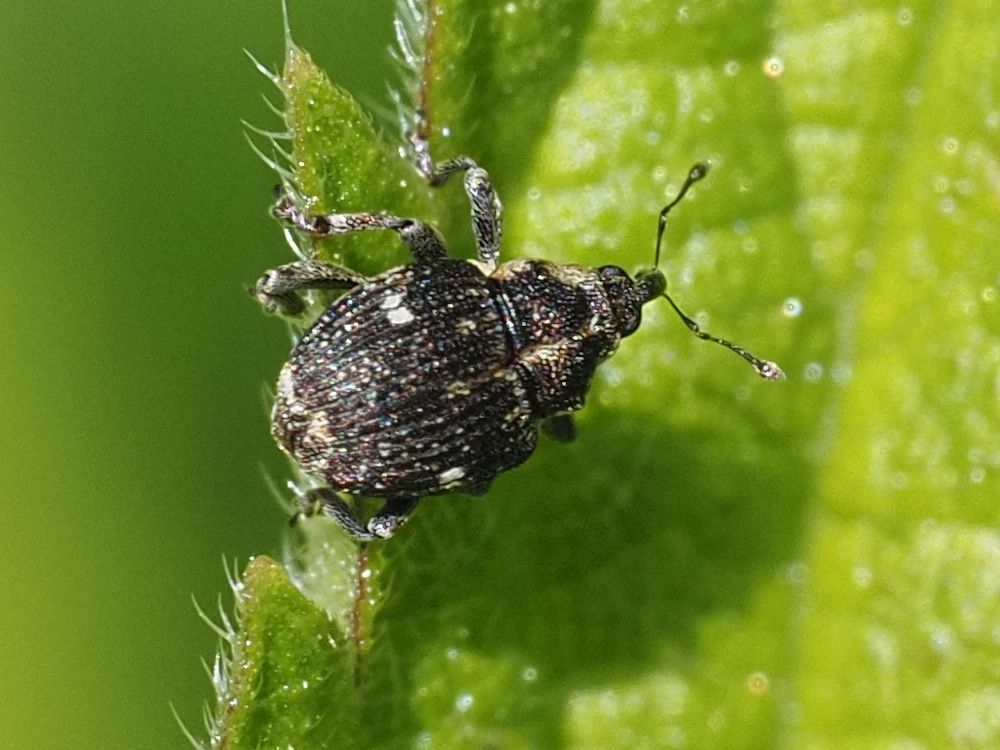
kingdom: Animalia
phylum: Arthropoda
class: Insecta
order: Coleoptera
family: Curculionidae
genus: Nedyus
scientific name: Nedyus quadrimaculatus
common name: Small nettle weevil
